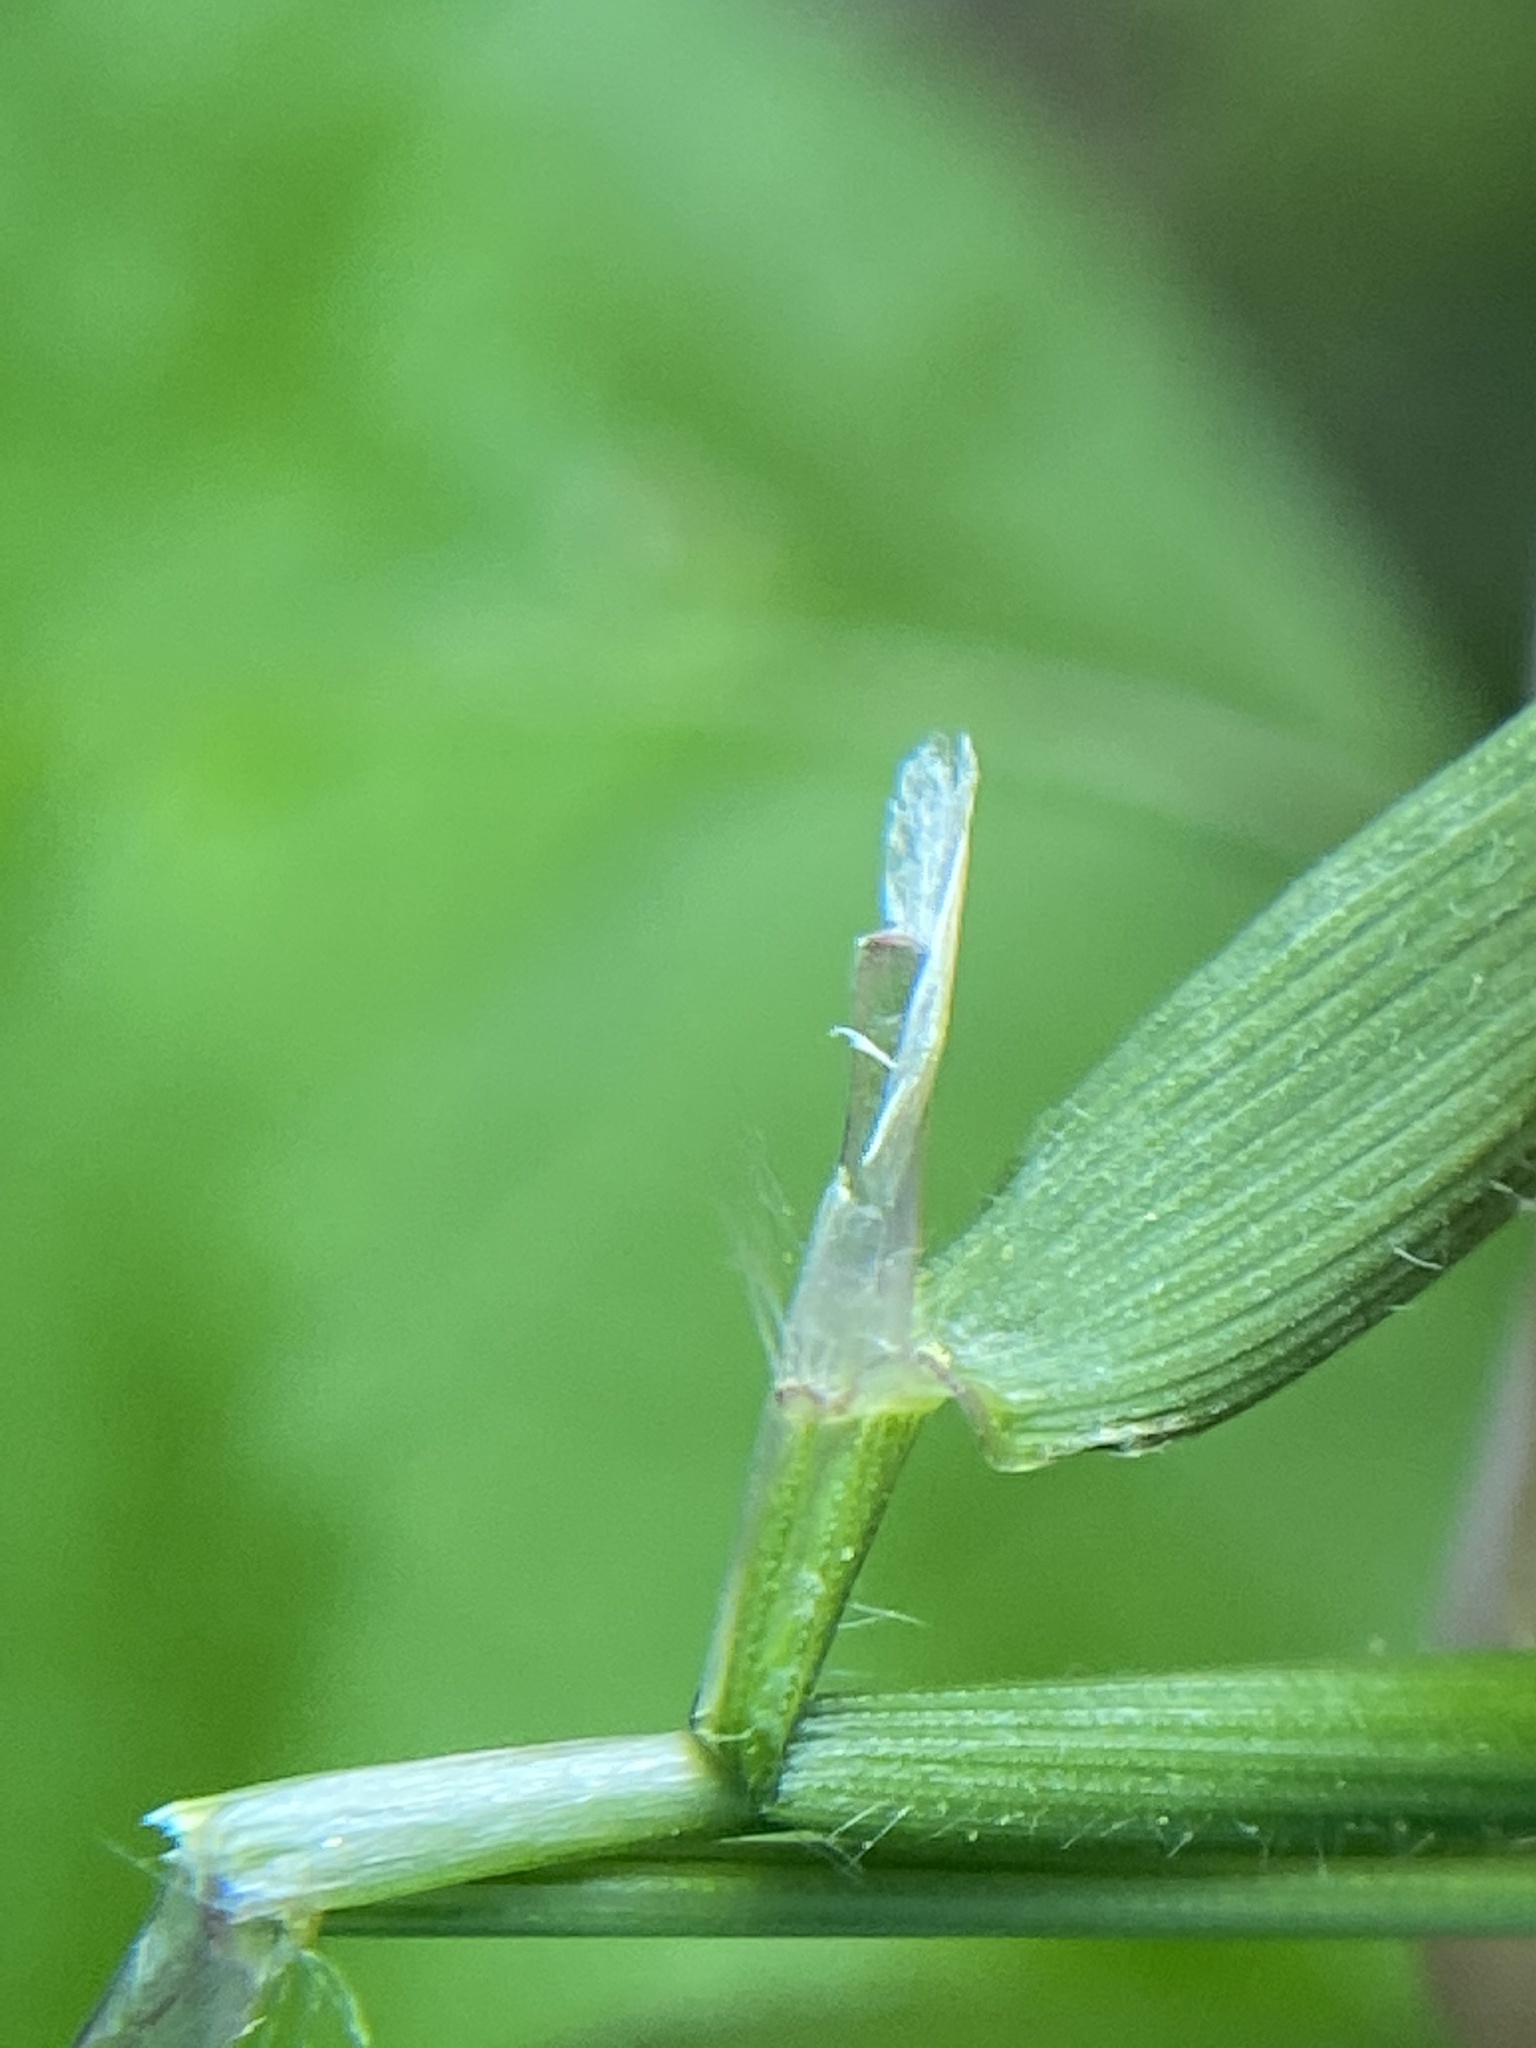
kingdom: Plantae
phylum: Tracheophyta
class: Liliopsida
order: Poales
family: Poaceae
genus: Anthoxanthum
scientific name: Anthoxanthum odoratum
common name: Sweet vernalgrass
